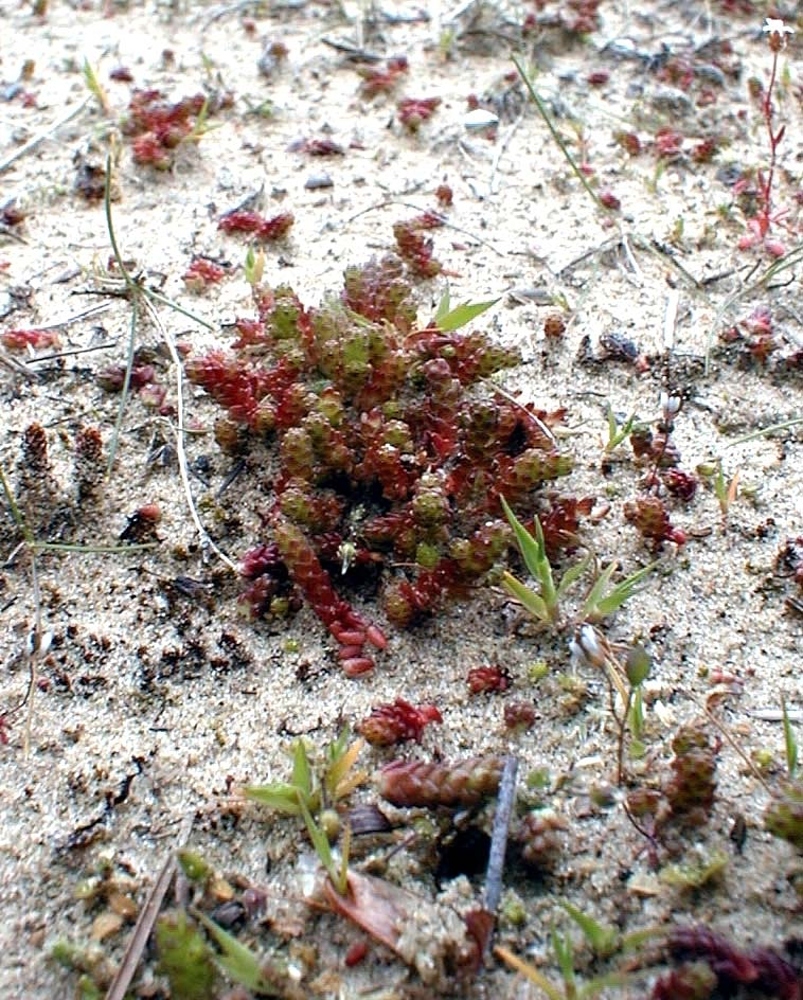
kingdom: Plantae
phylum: Tracheophyta
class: Magnoliopsida
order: Saxifragales
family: Crassulaceae
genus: Sedum
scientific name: Sedum acre
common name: Biting stonecrop
